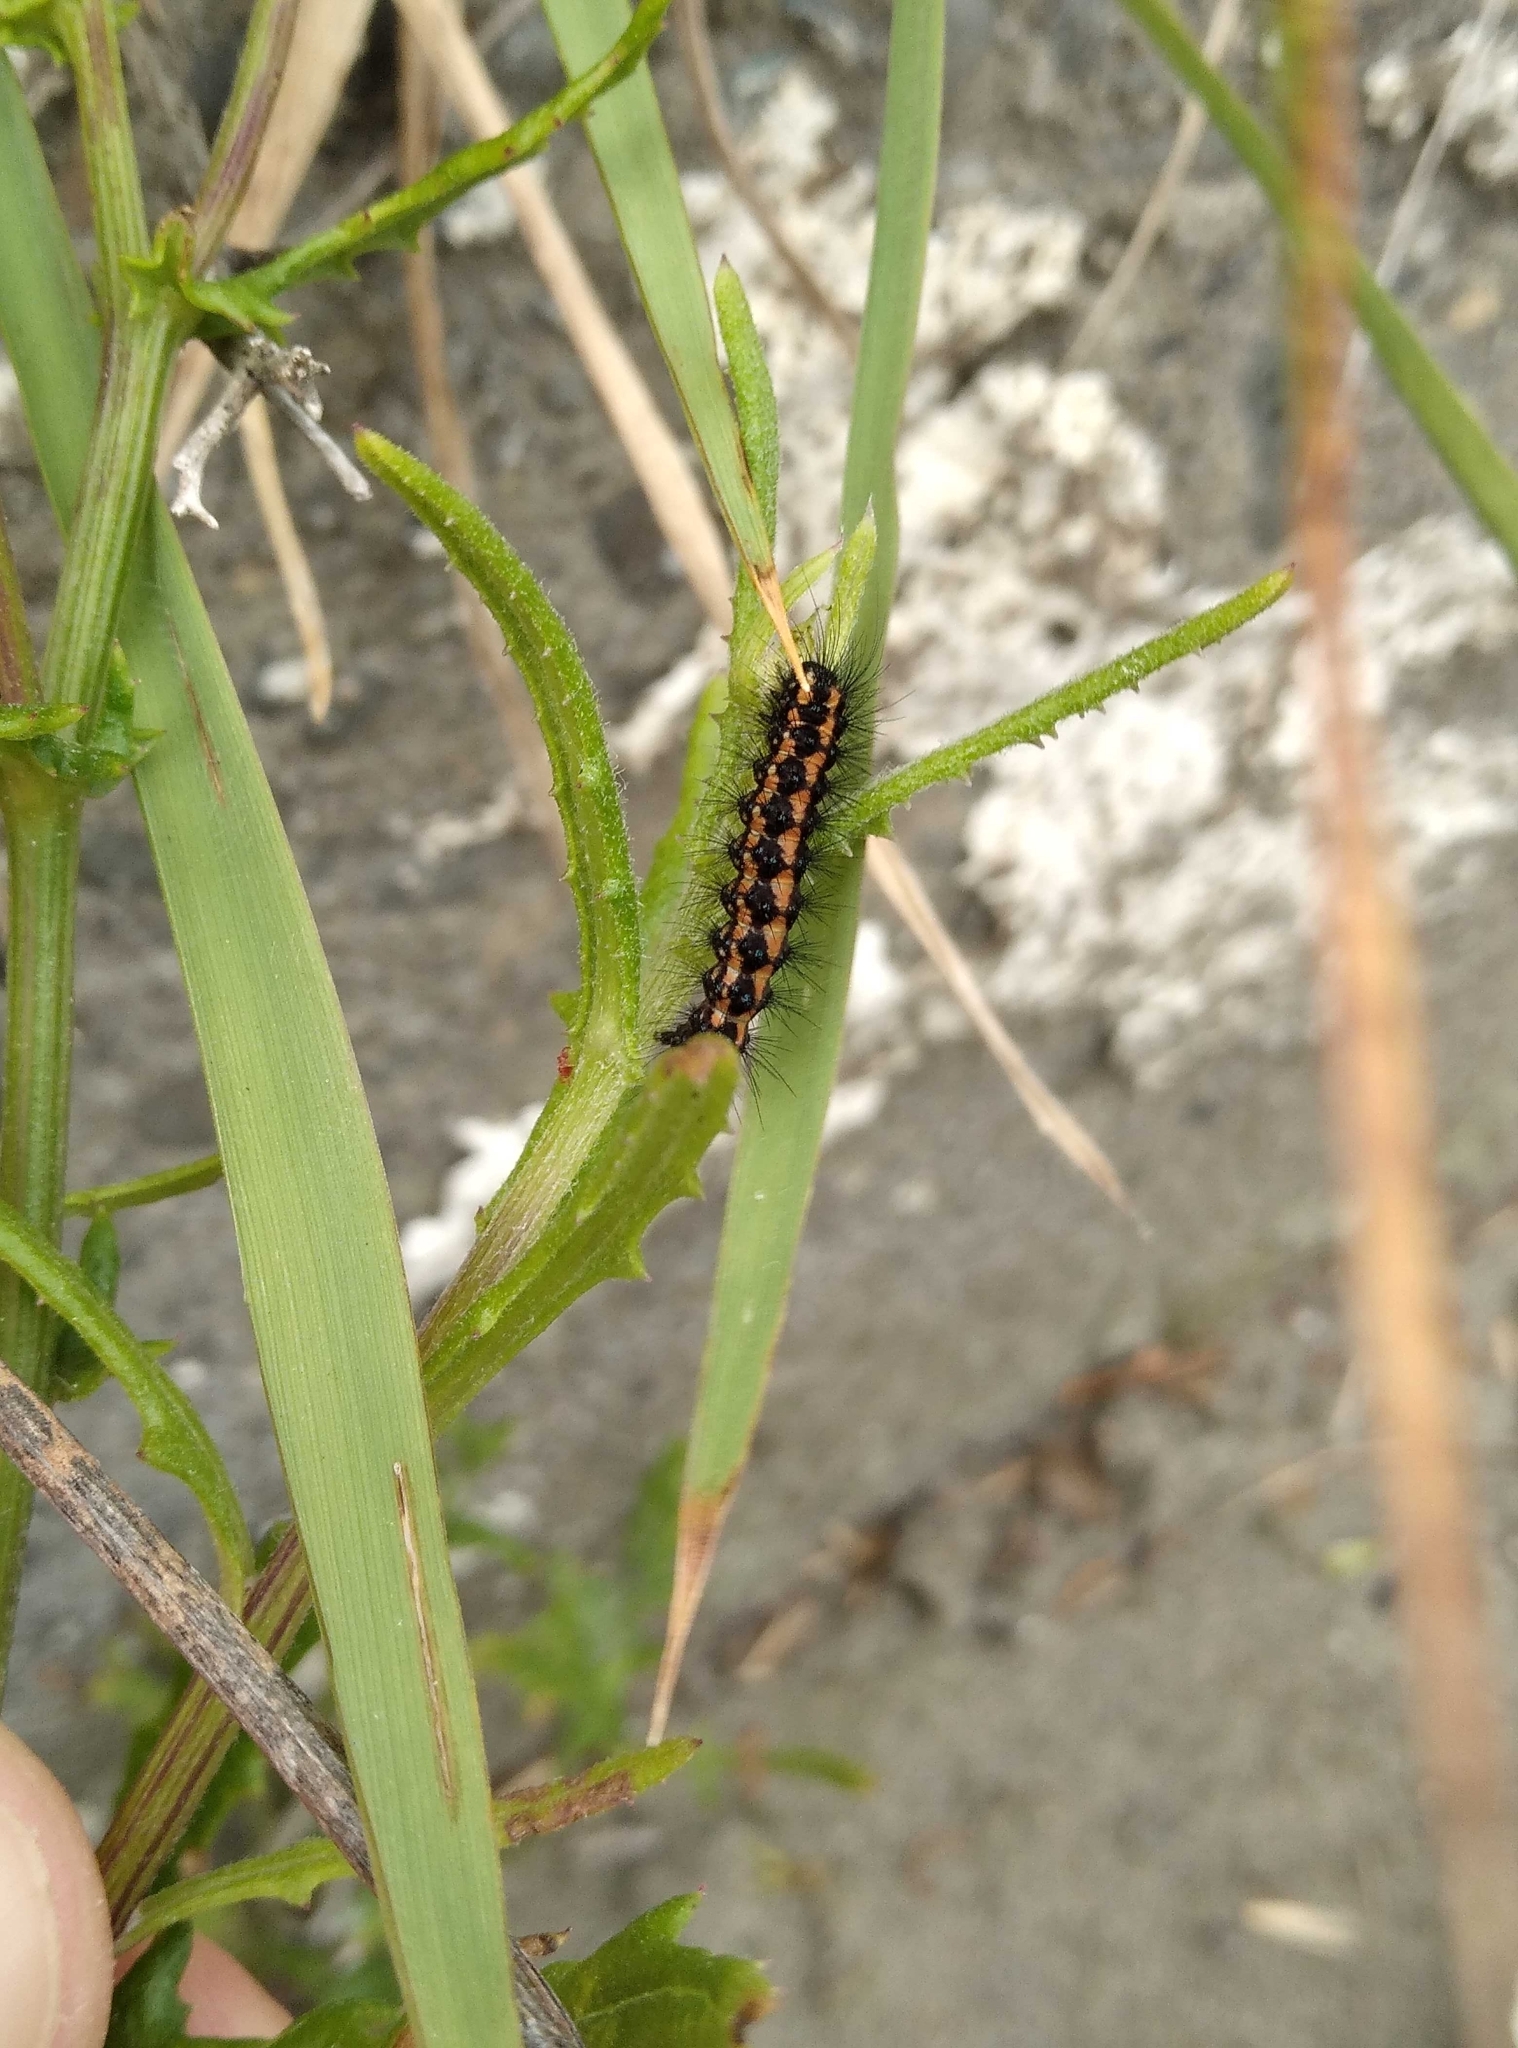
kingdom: Animalia
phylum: Arthropoda
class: Insecta
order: Lepidoptera
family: Erebidae
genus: Nyctemera
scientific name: Nyctemera annulatum
